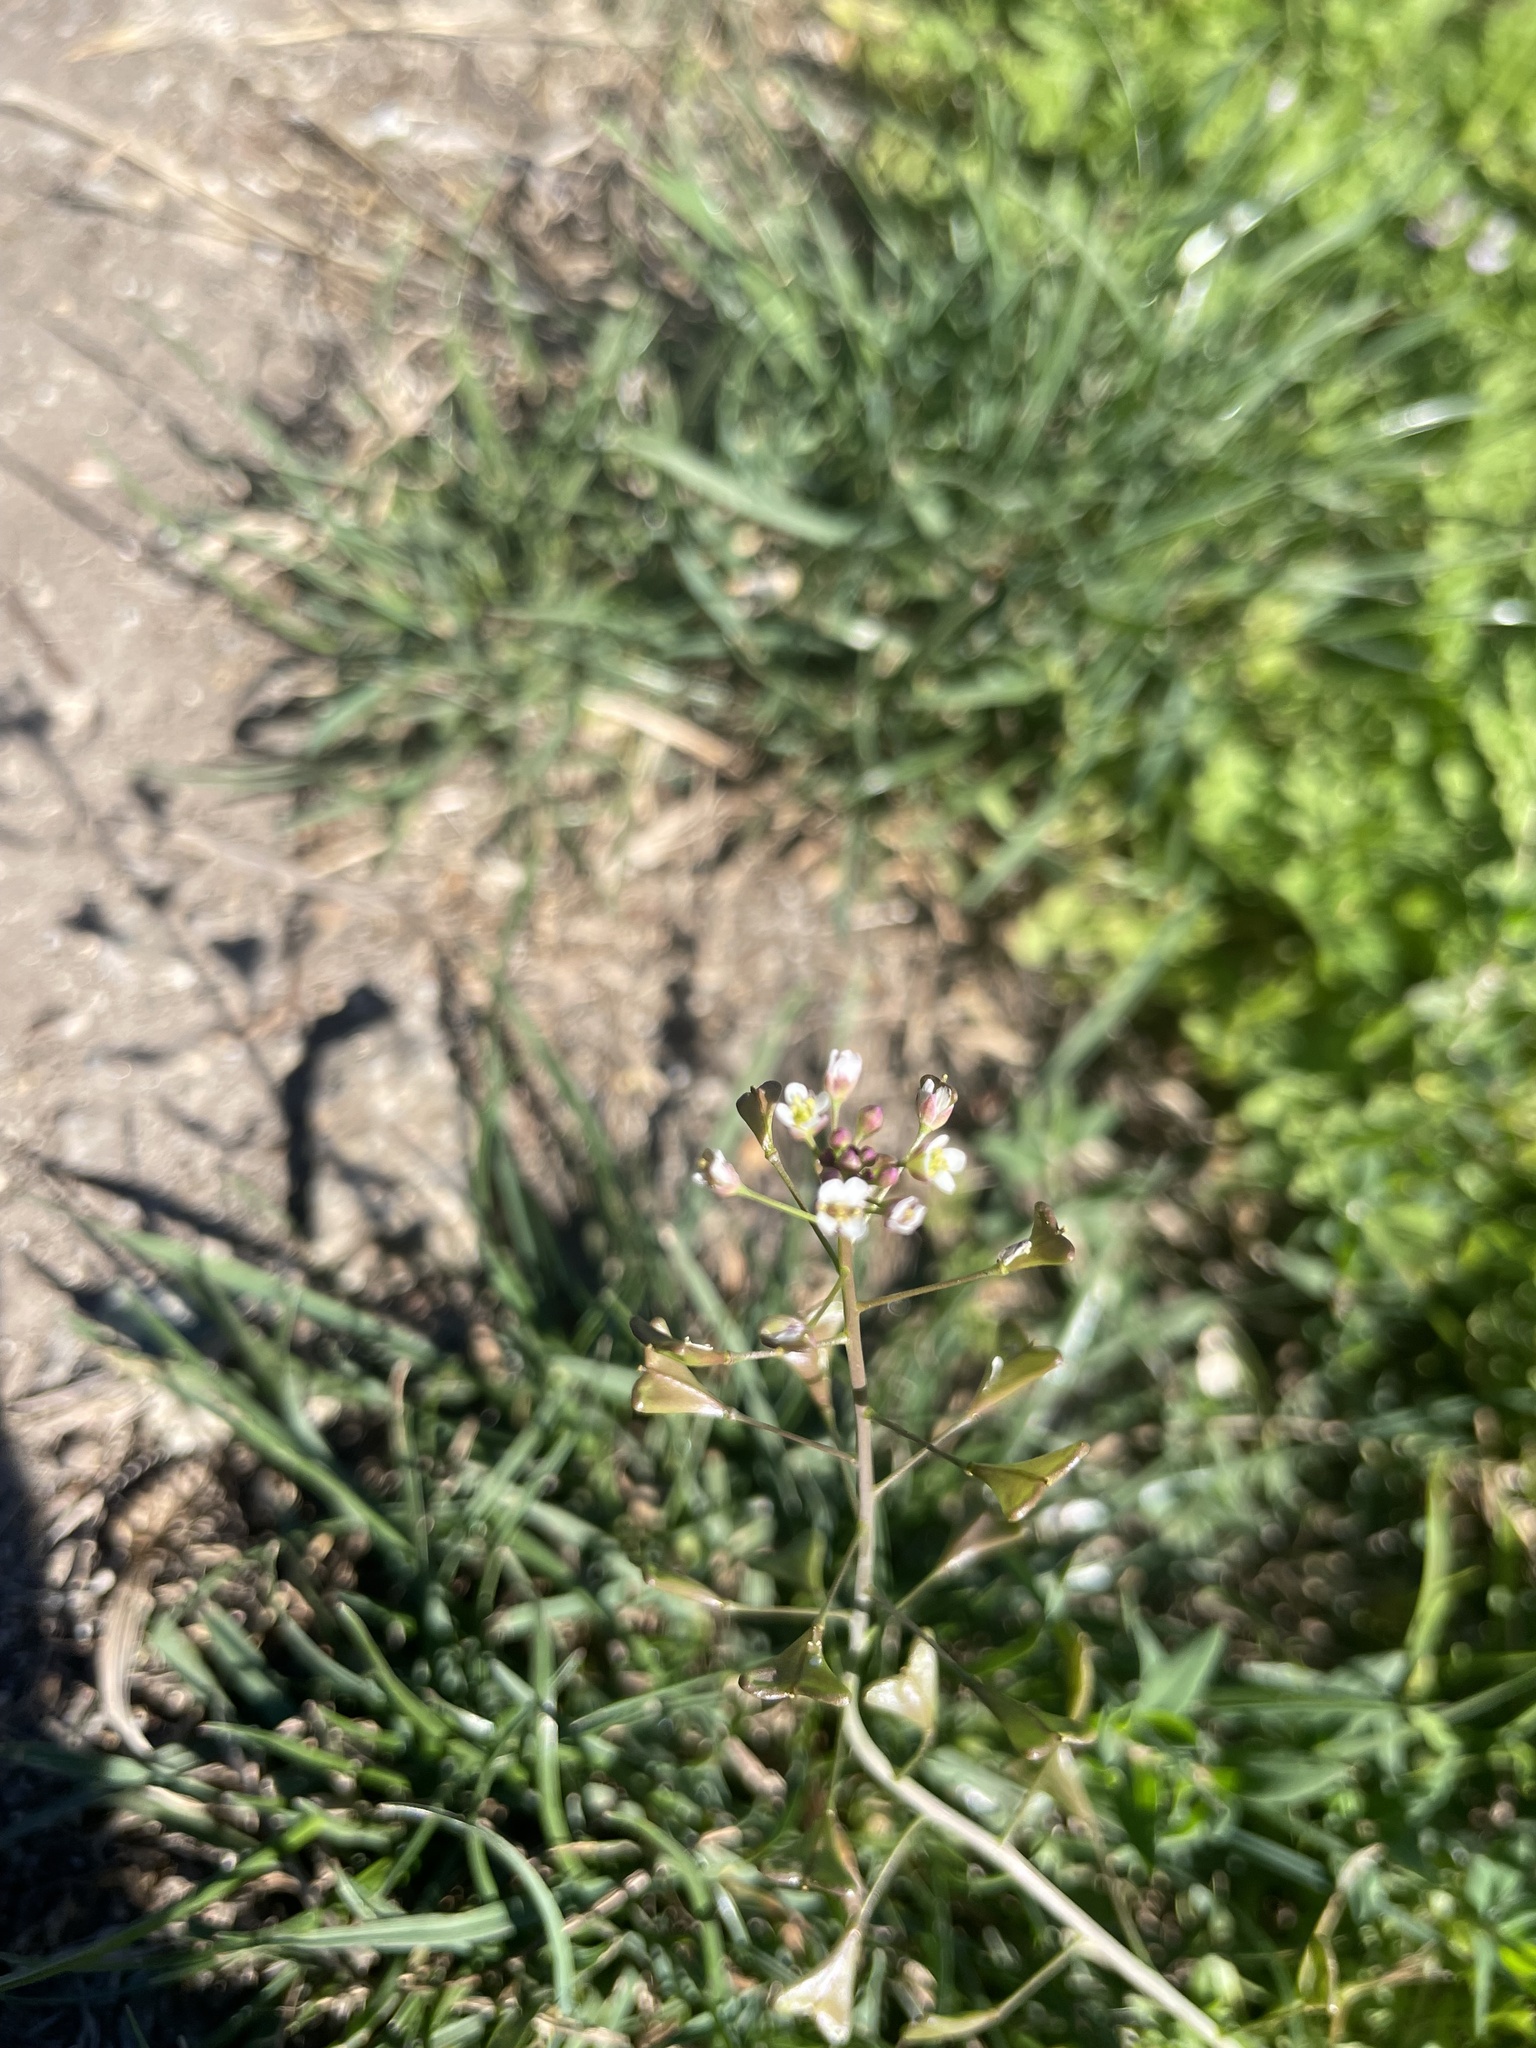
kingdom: Plantae
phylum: Tracheophyta
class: Magnoliopsida
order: Brassicales
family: Brassicaceae
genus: Capsella
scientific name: Capsella bursa-pastoris
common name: Shepherd's purse
